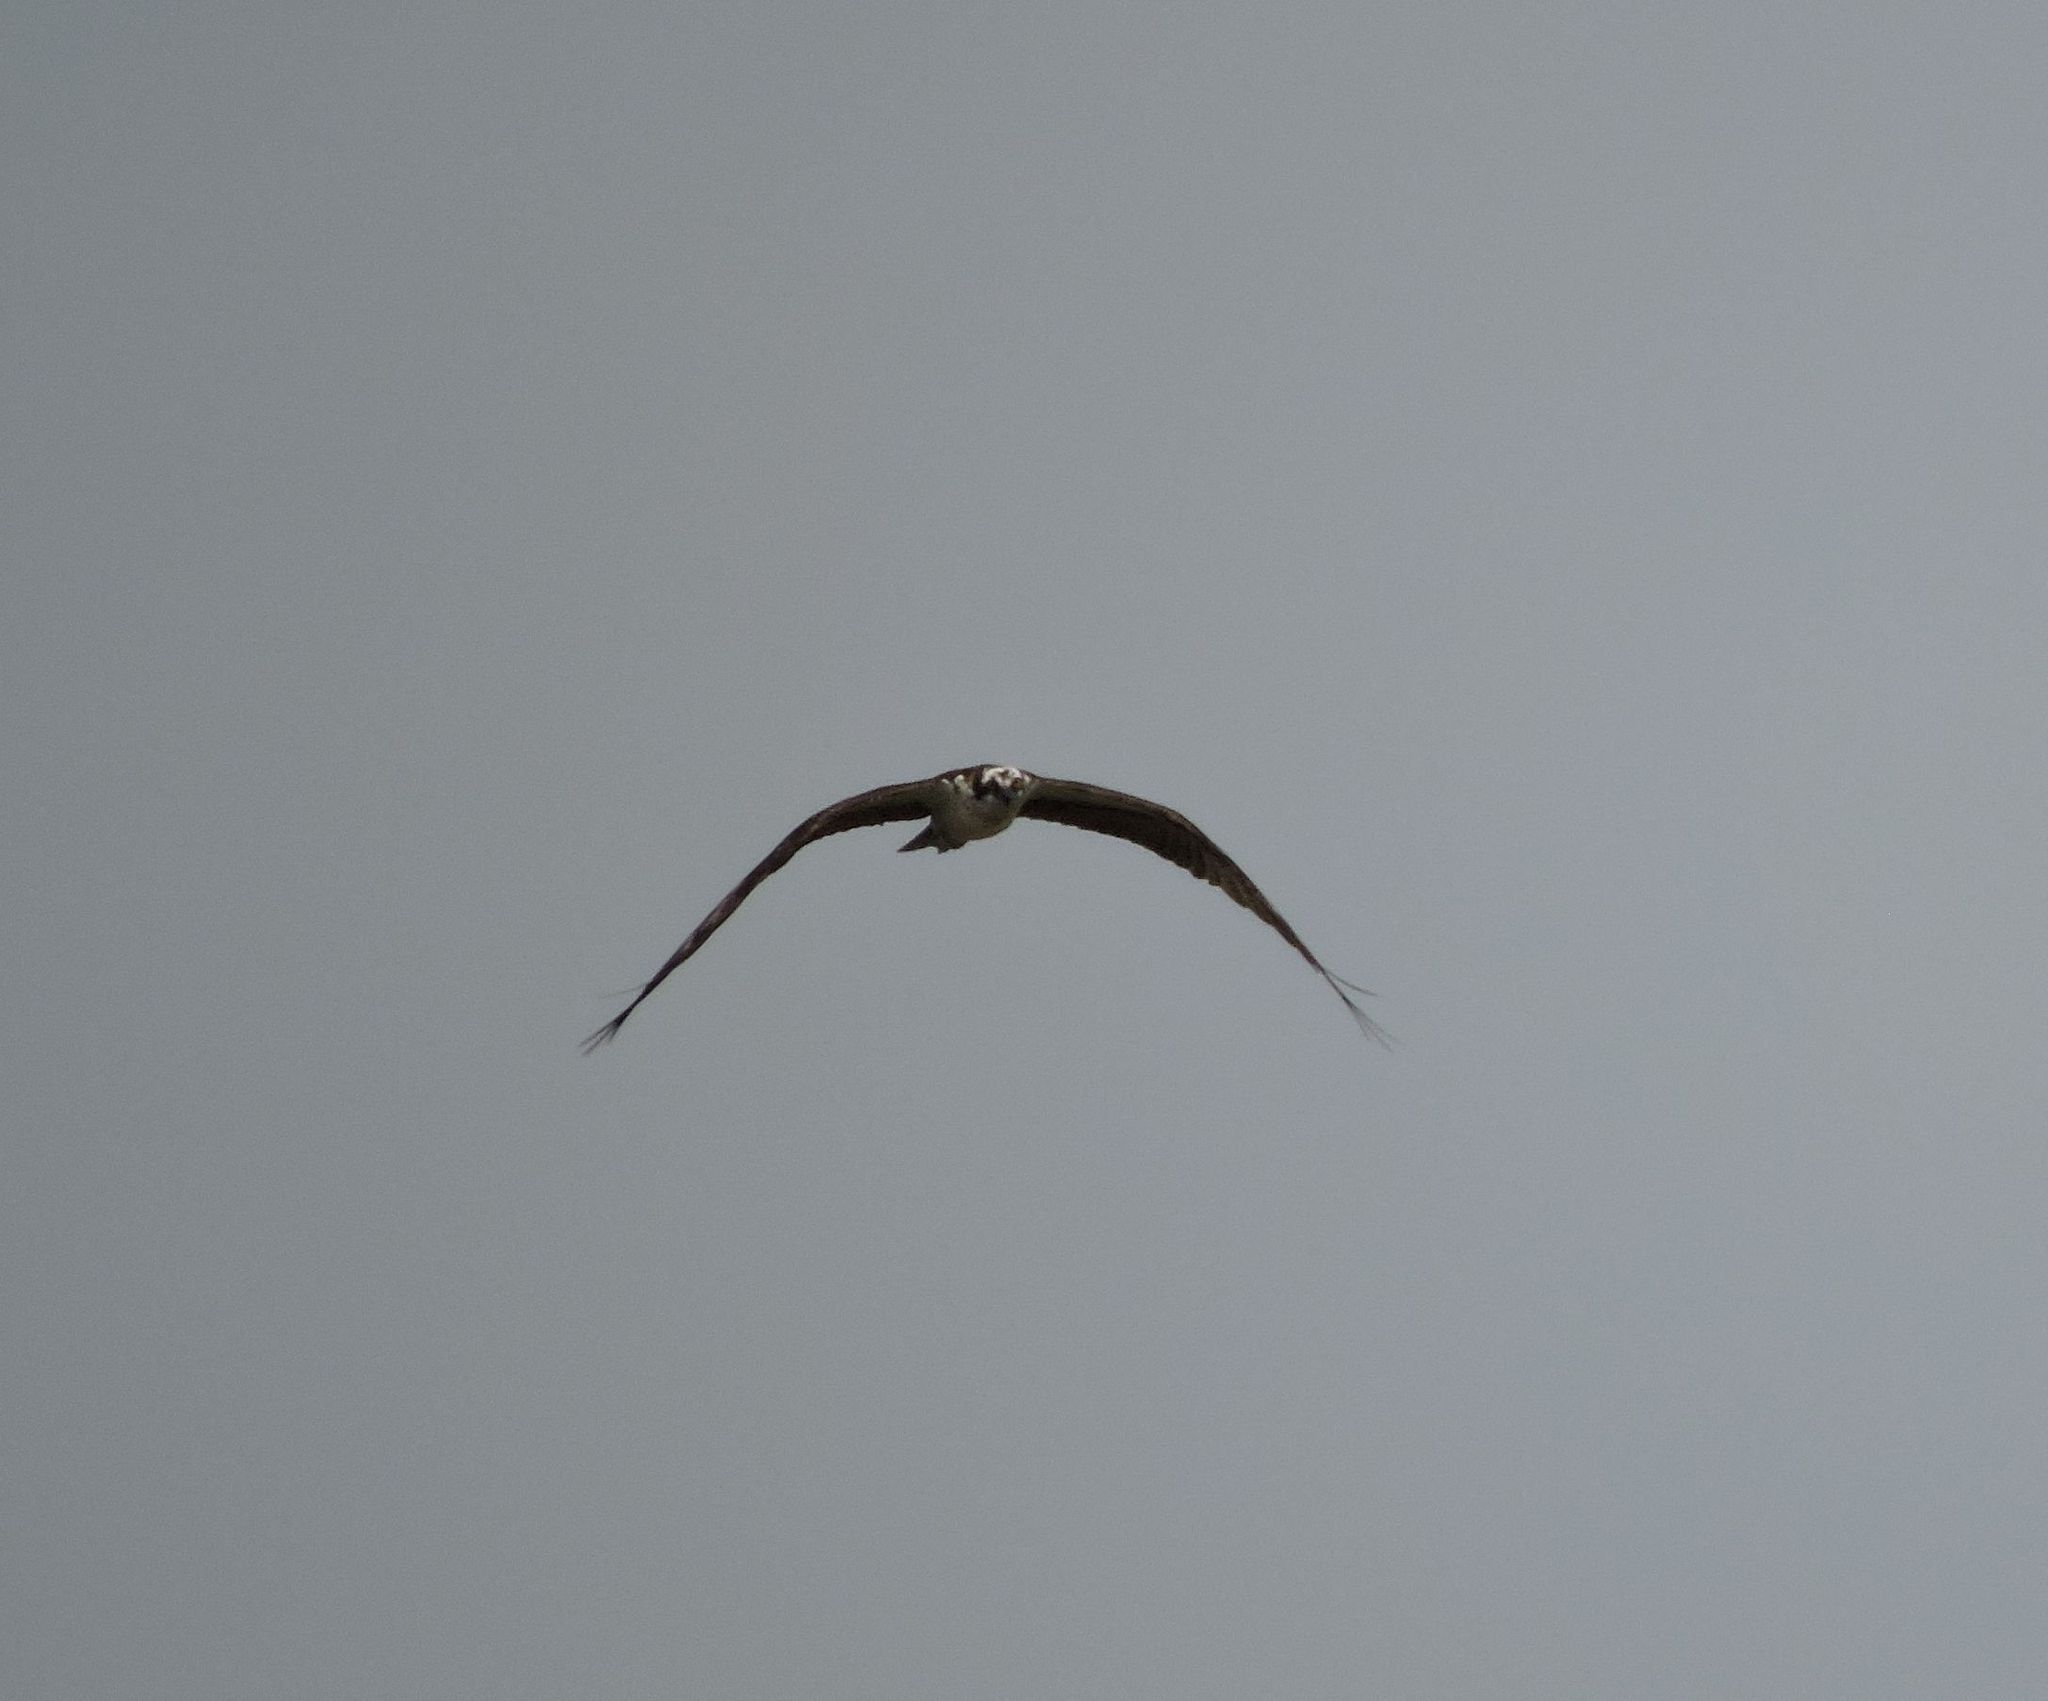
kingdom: Animalia
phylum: Chordata
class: Aves
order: Accipitriformes
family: Pandionidae
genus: Pandion
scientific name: Pandion haliaetus
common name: Osprey
